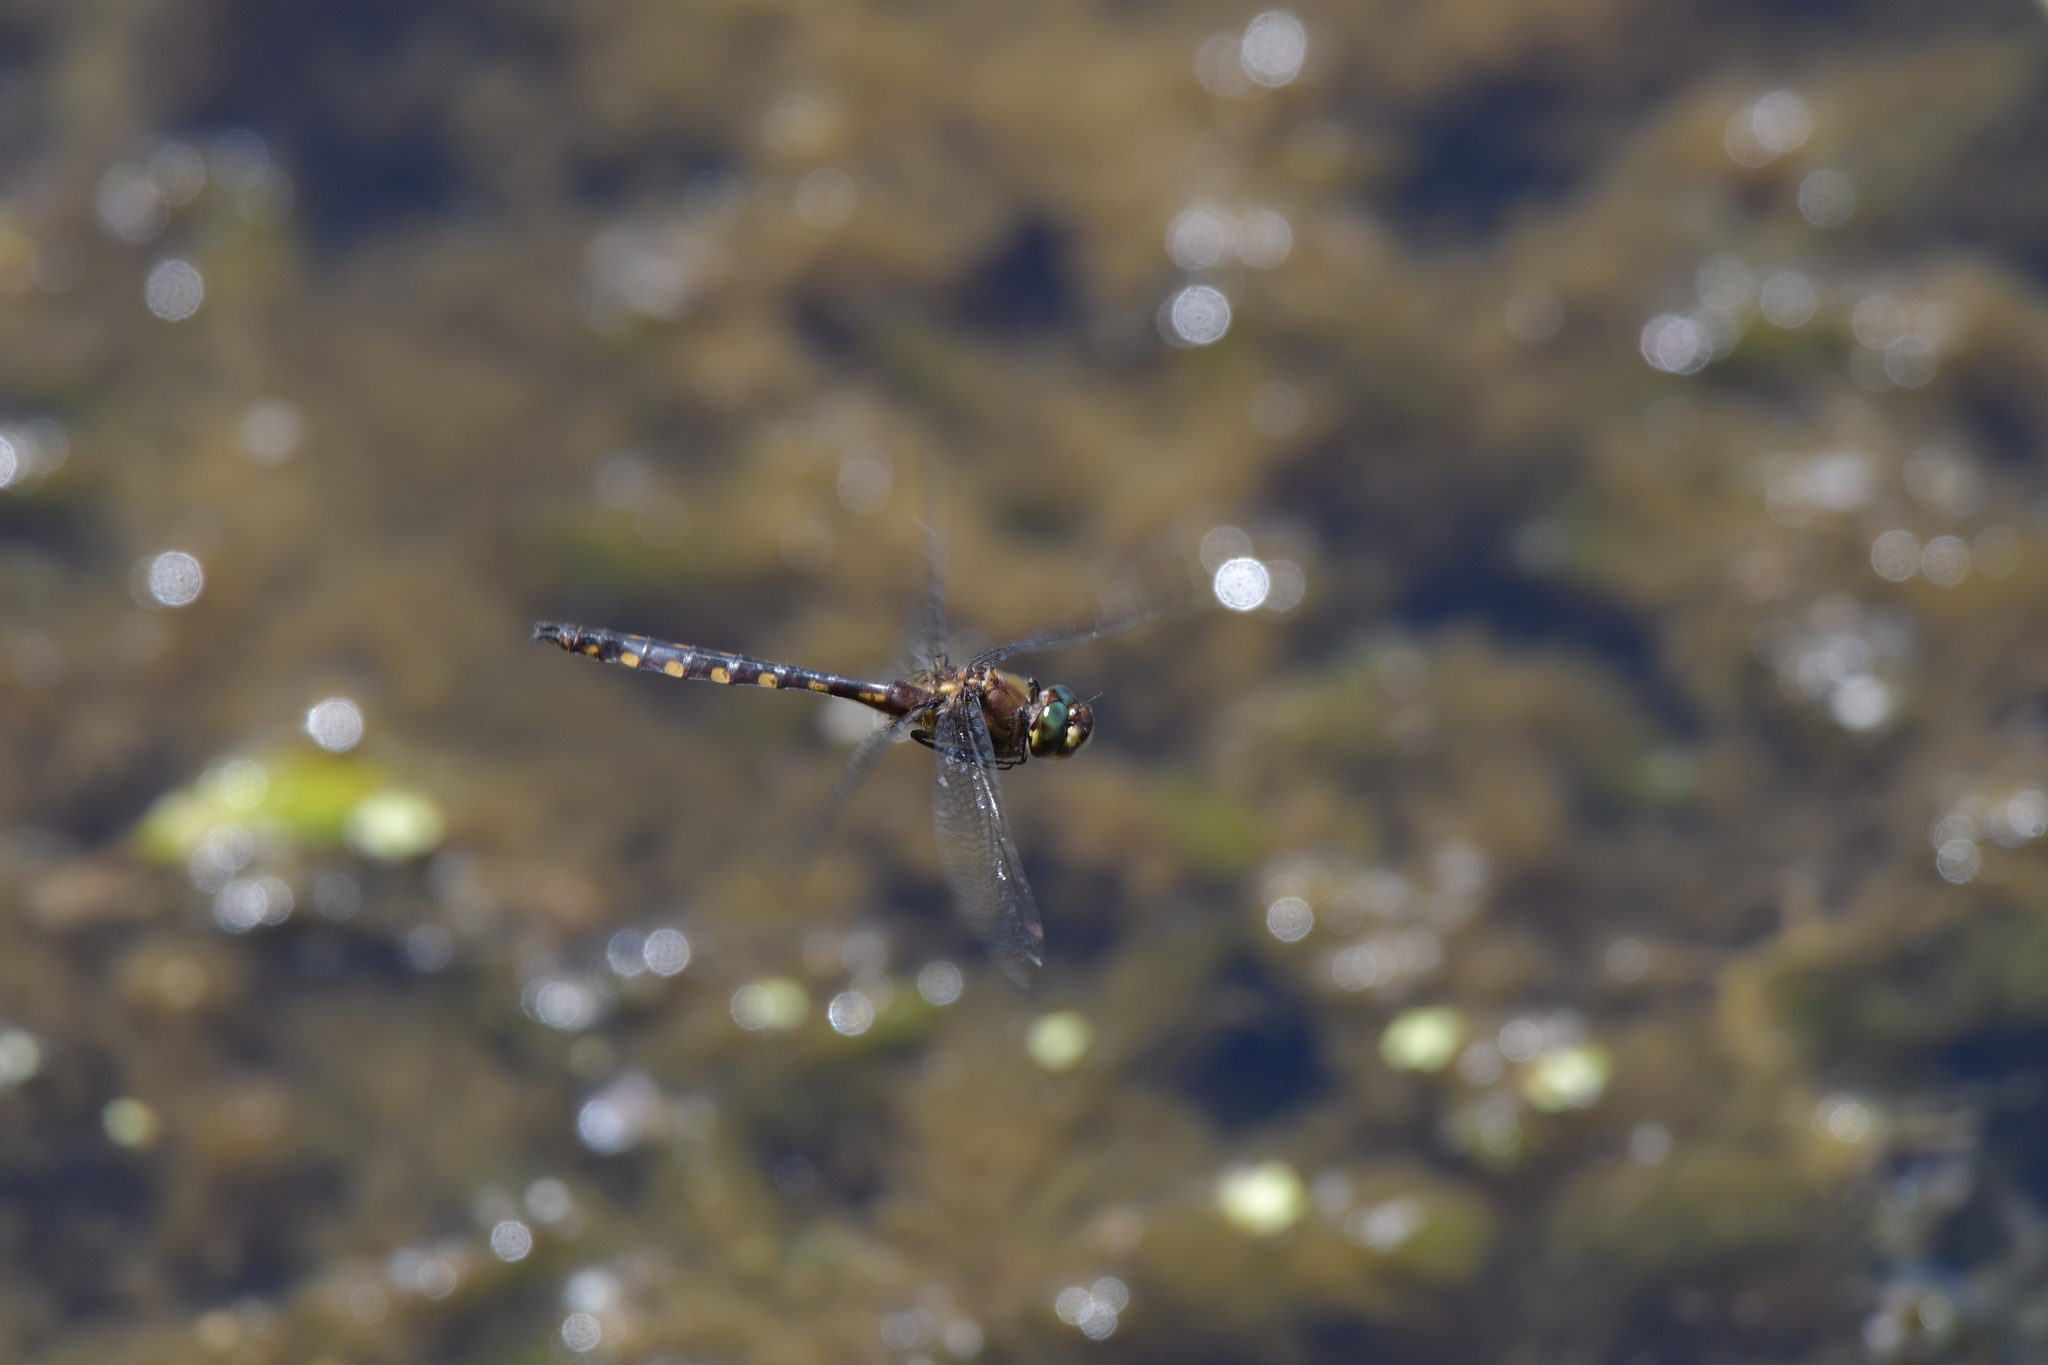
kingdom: Animalia
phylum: Arthropoda
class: Insecta
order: Odonata
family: Corduliidae
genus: Procordulia
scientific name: Procordulia grayi
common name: Yellow spotted dragonfly
